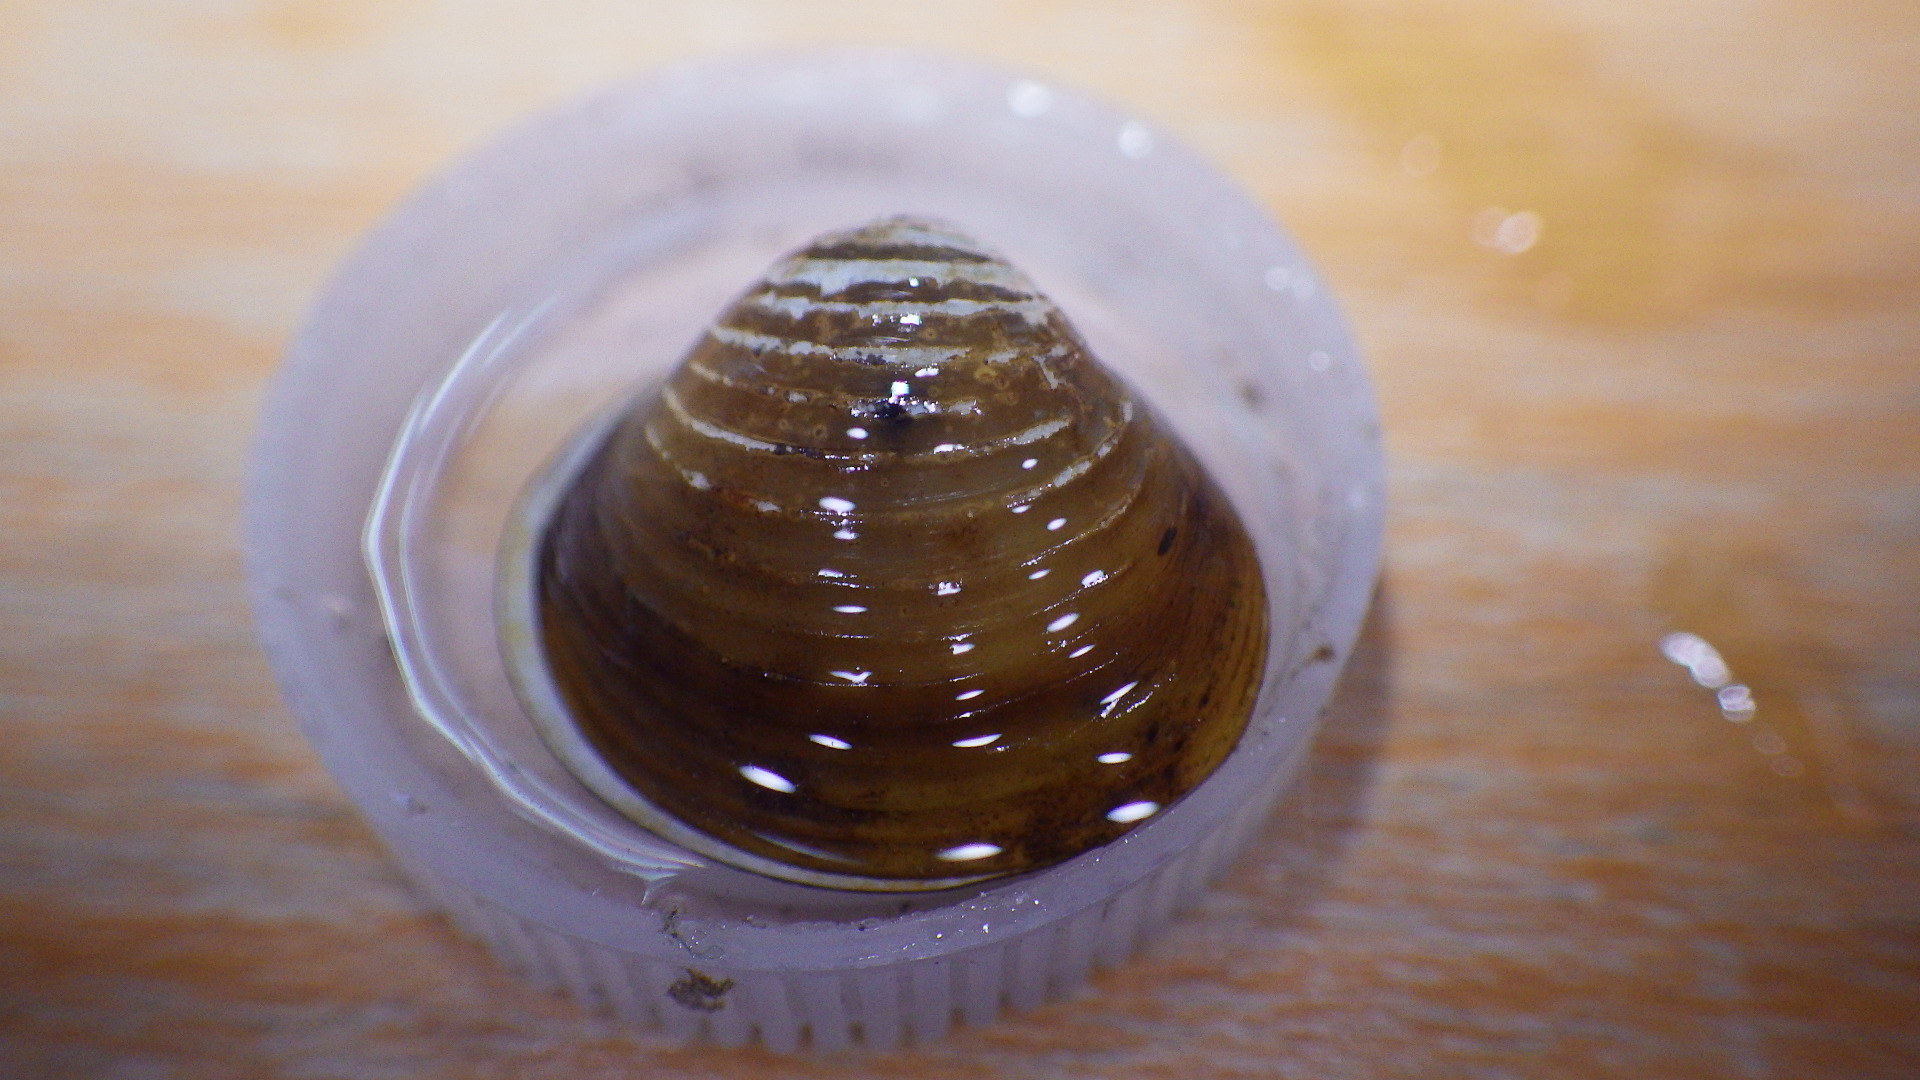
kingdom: Animalia
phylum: Mollusca
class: Bivalvia
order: Venerida
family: Cyrenidae
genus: Corbicula
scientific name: Corbicula fluminea
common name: Asian clam
